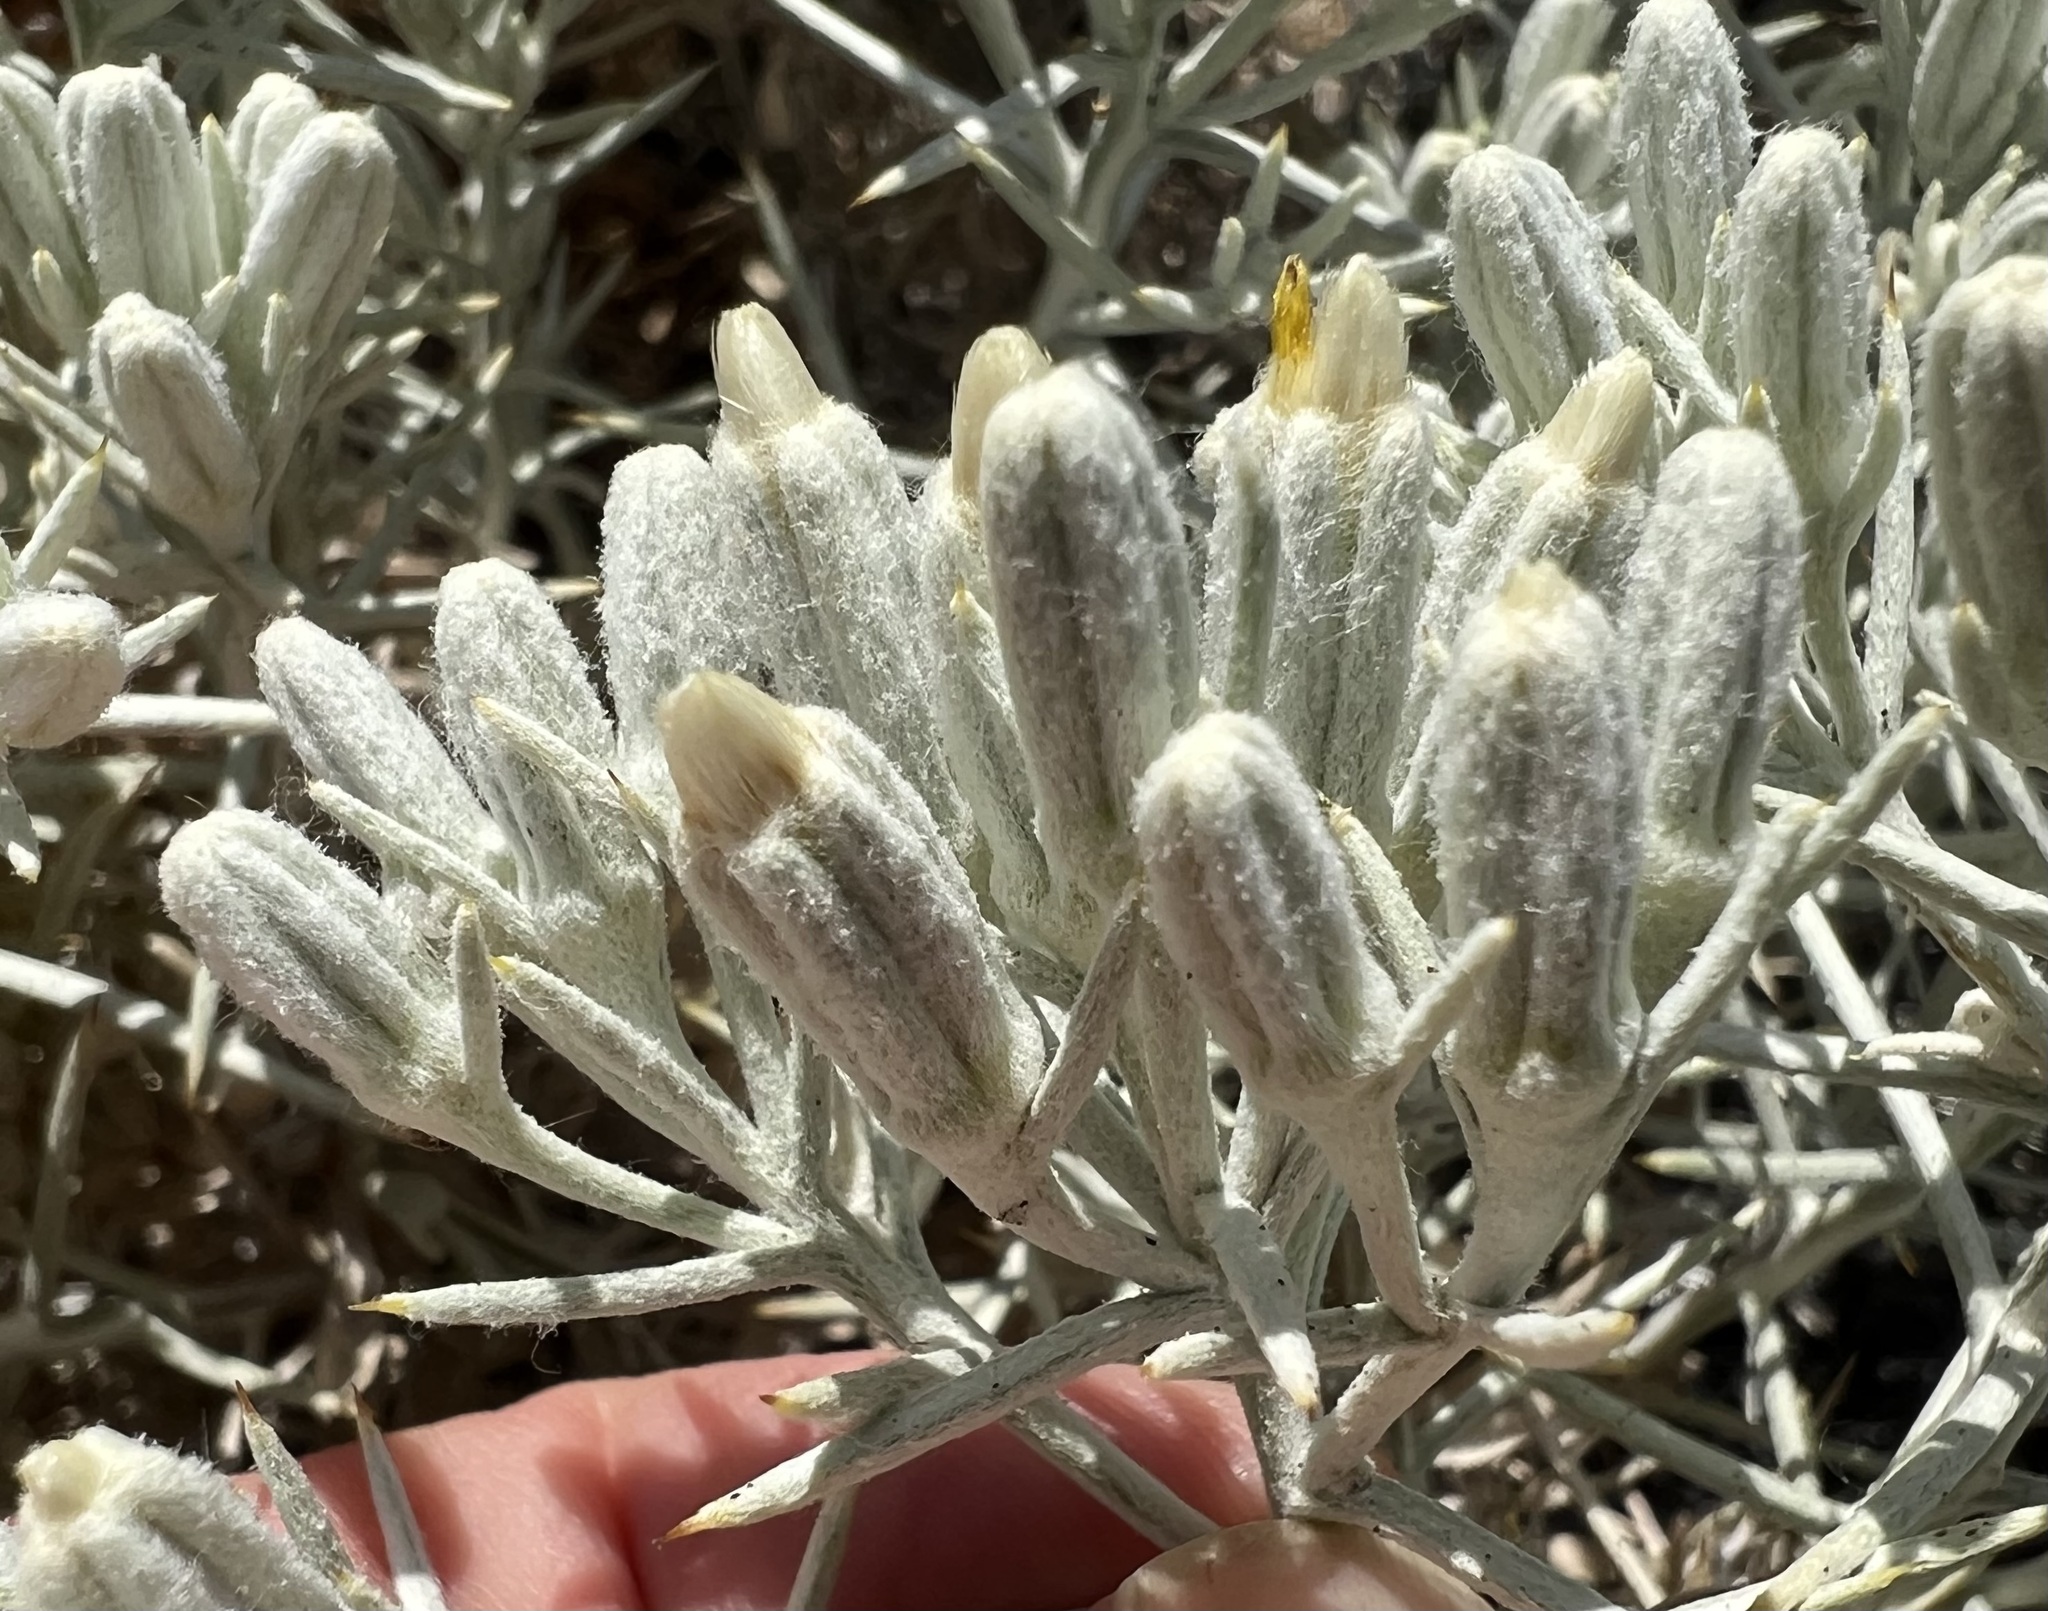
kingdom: Plantae
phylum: Tracheophyta
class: Magnoliopsida
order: Asterales
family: Asteraceae
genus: Tetradymia
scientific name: Tetradymia stenolepis
